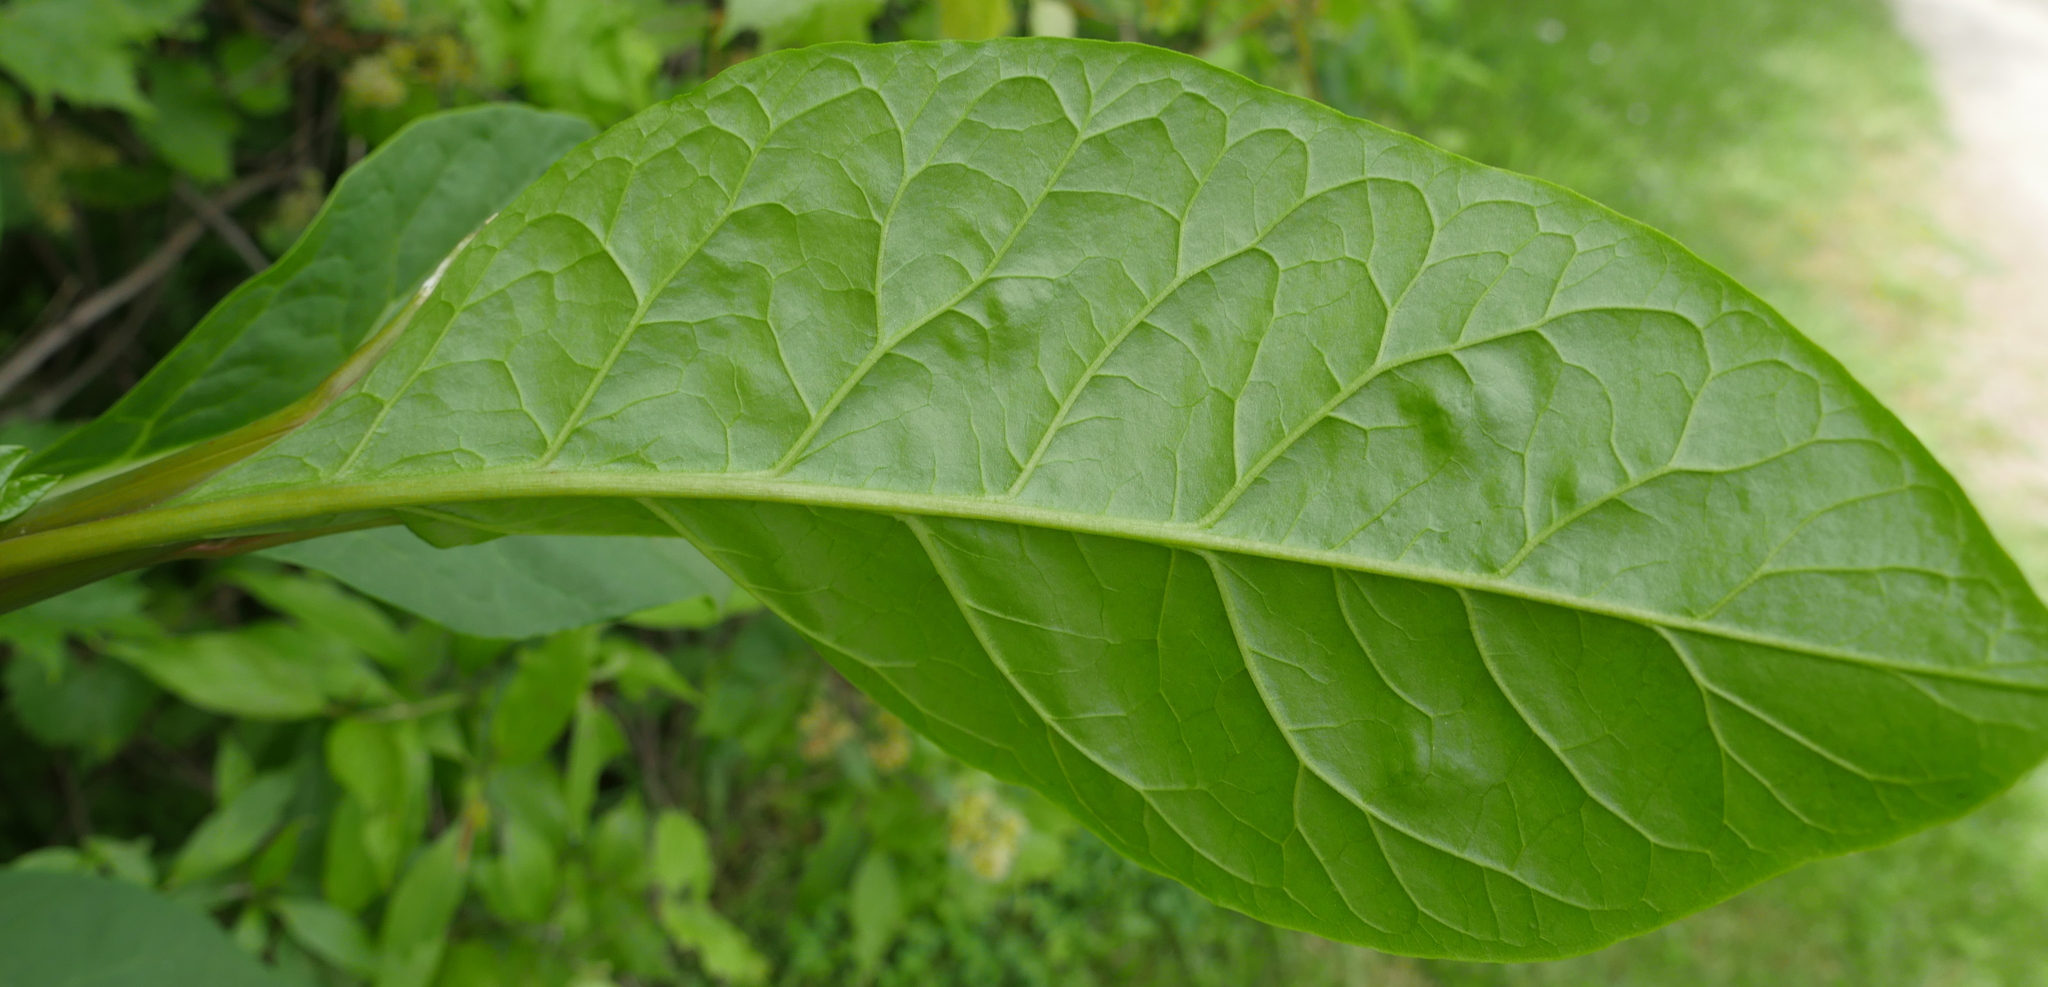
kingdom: Plantae
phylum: Tracheophyta
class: Magnoliopsida
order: Caryophyllales
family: Phytolaccaceae
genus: Phytolacca
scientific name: Phytolacca americana
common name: American pokeweed
